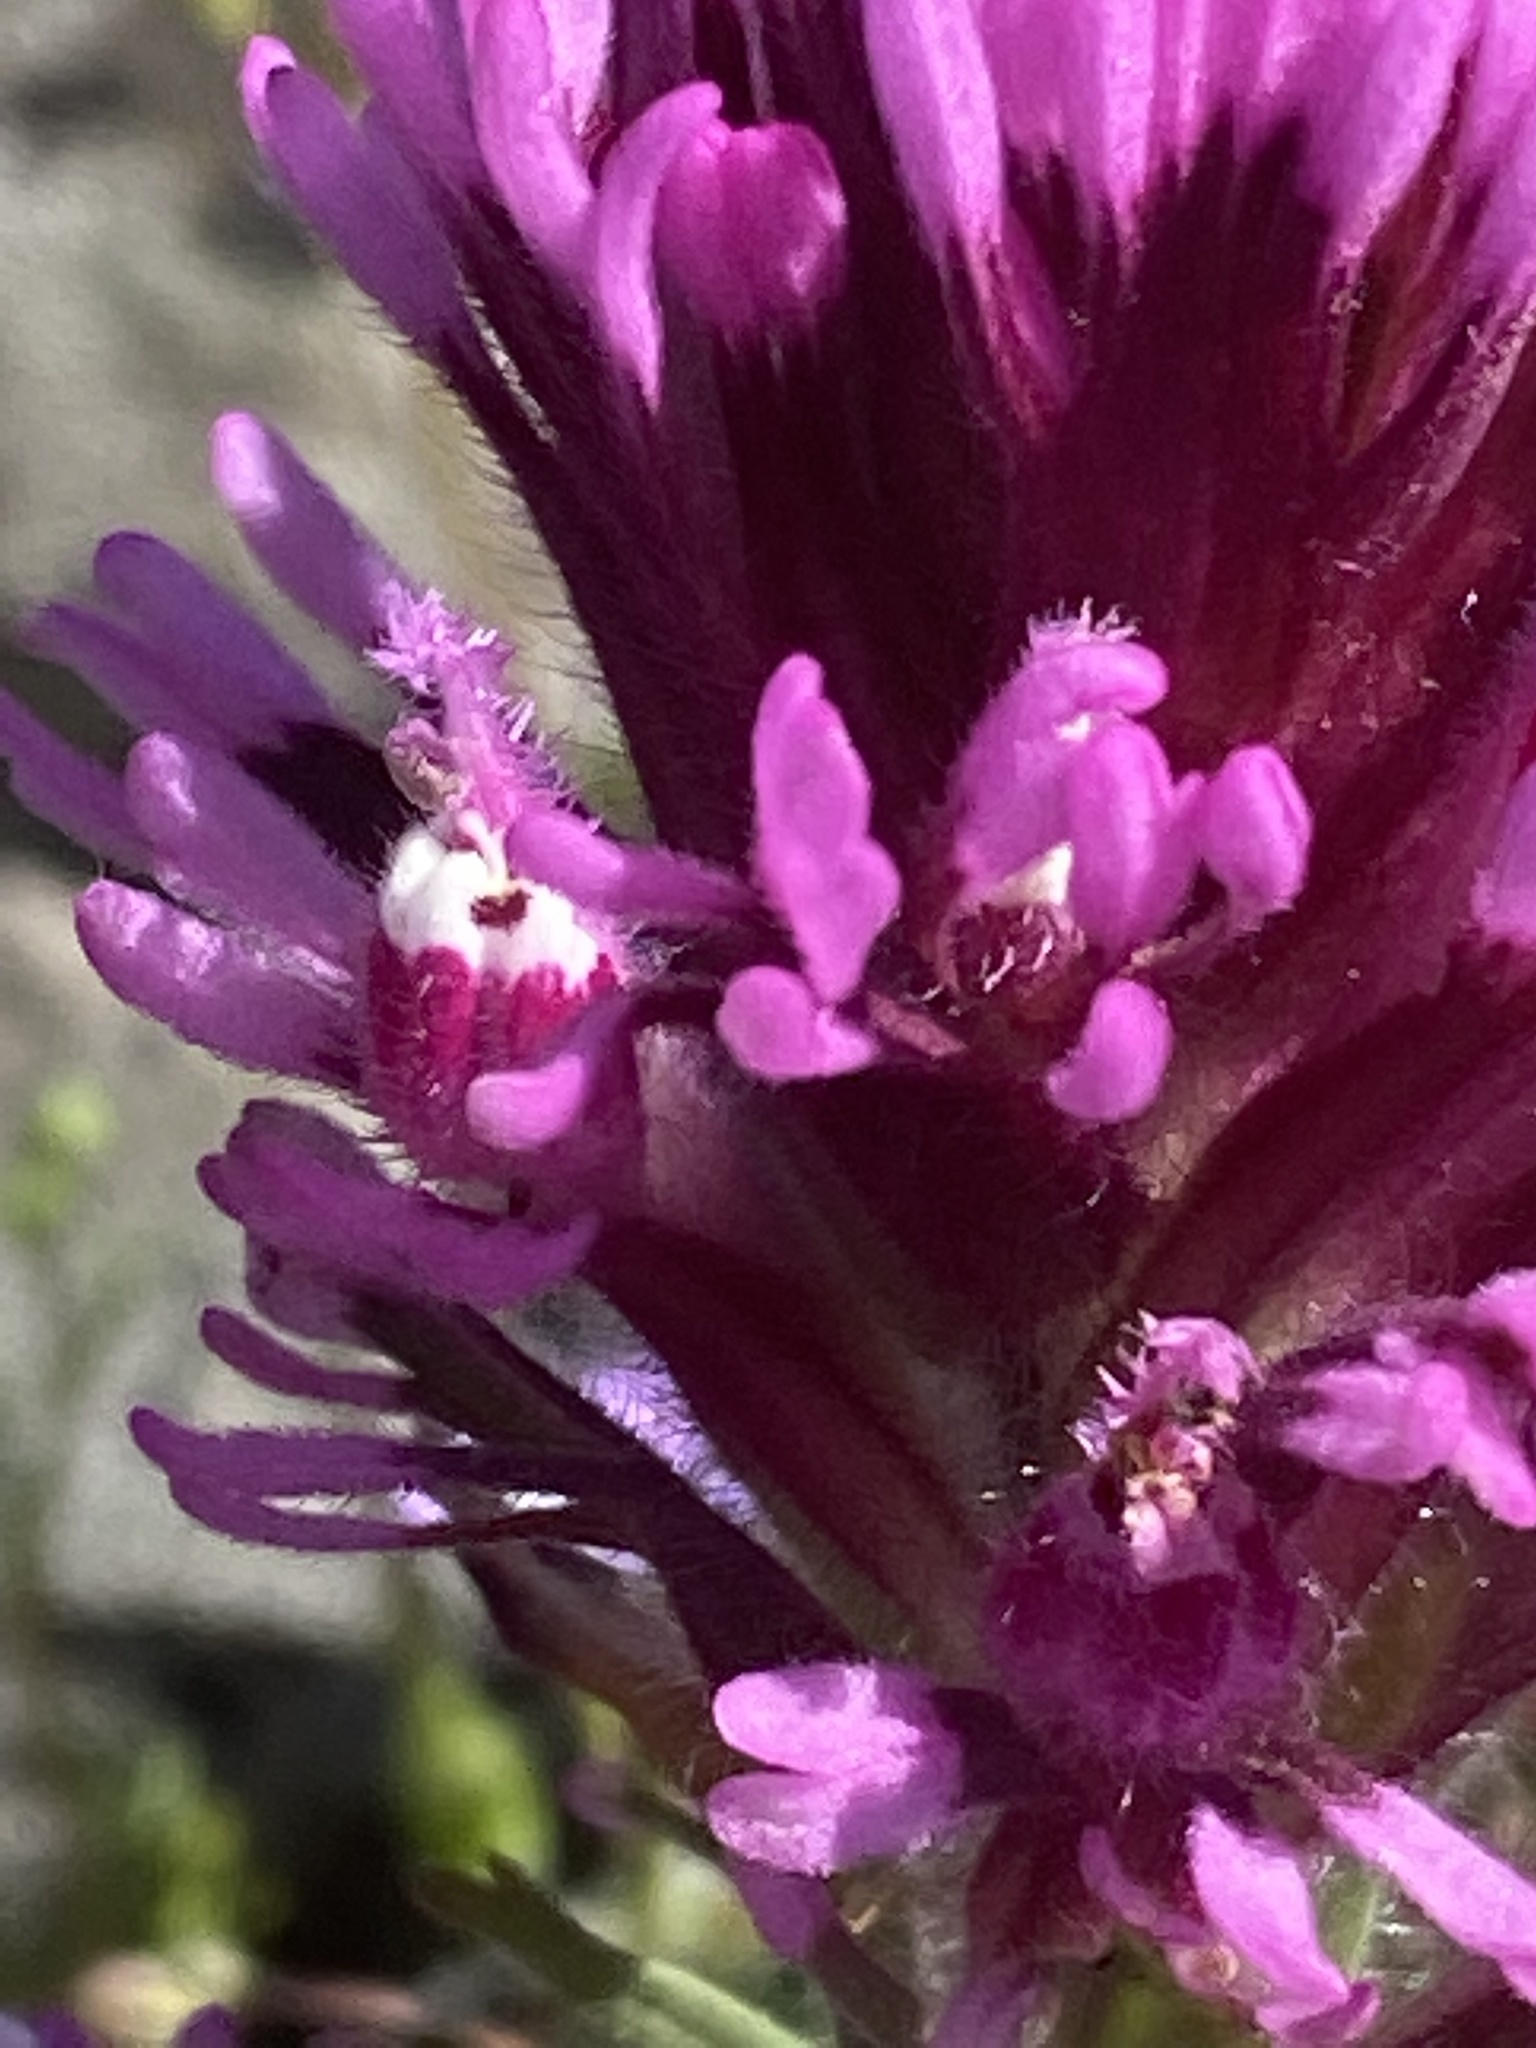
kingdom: Plantae
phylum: Tracheophyta
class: Magnoliopsida
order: Lamiales
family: Orobanchaceae
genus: Castilleja
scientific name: Castilleja exserta
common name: Purple owl-clover
